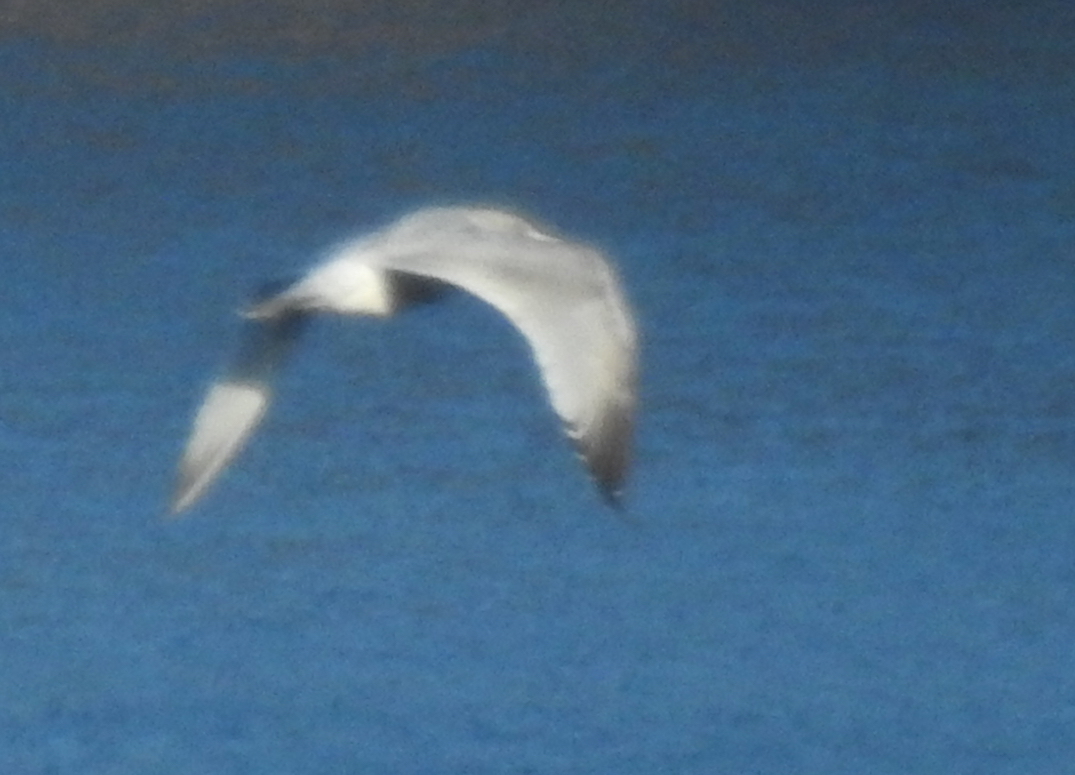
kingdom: Animalia
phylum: Chordata
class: Aves
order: Charadriiformes
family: Laridae
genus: Larus
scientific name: Larus
